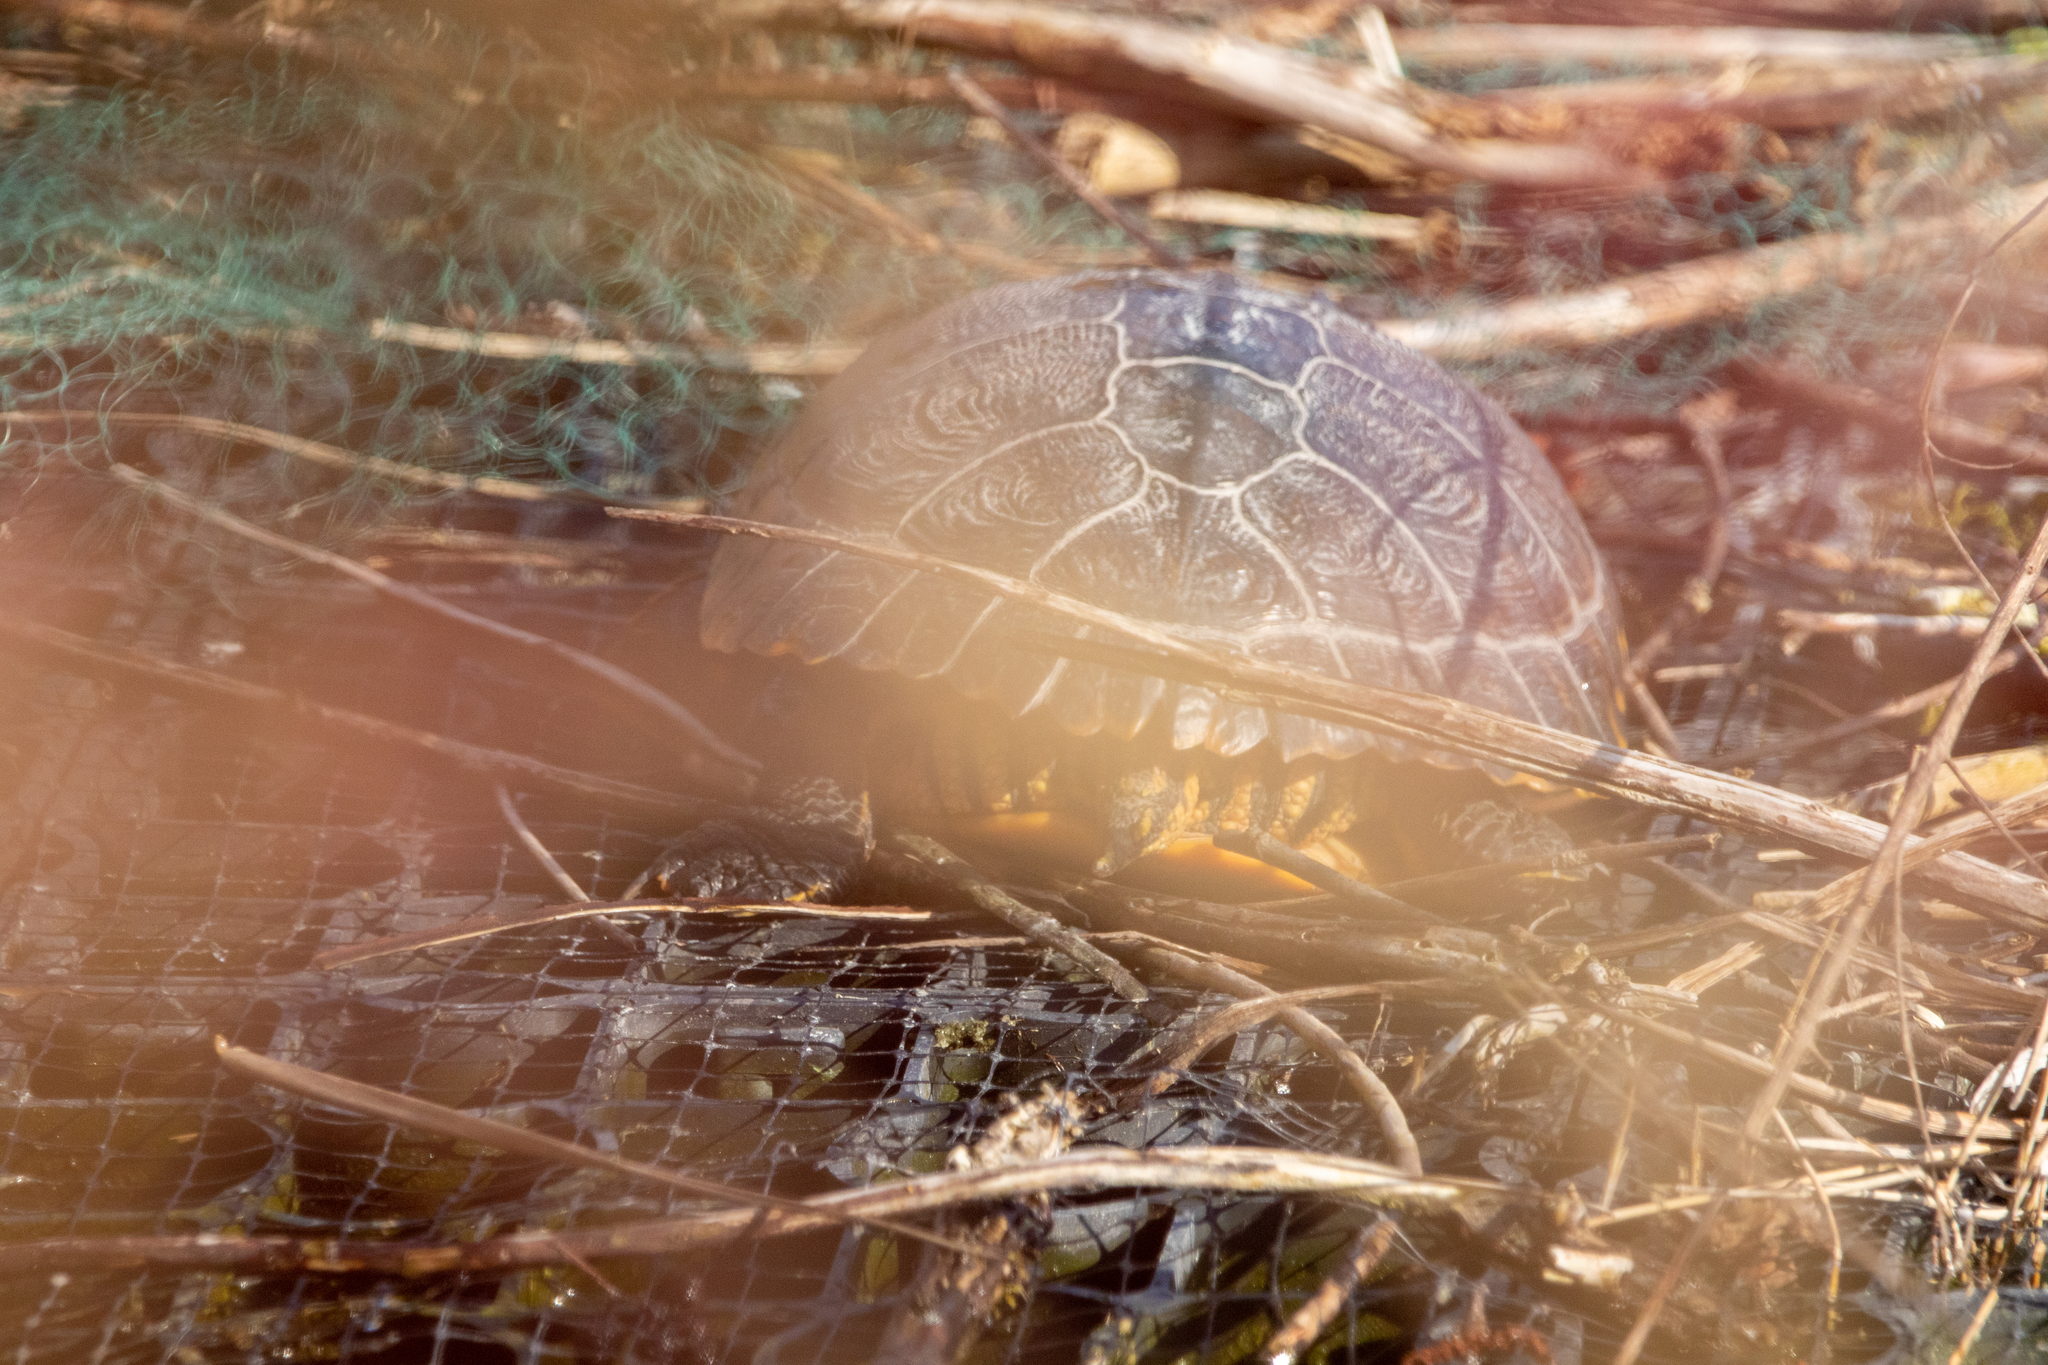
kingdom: Animalia
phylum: Chordata
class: Testudines
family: Emydidae
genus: Trachemys
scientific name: Trachemys scripta
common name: Slider
